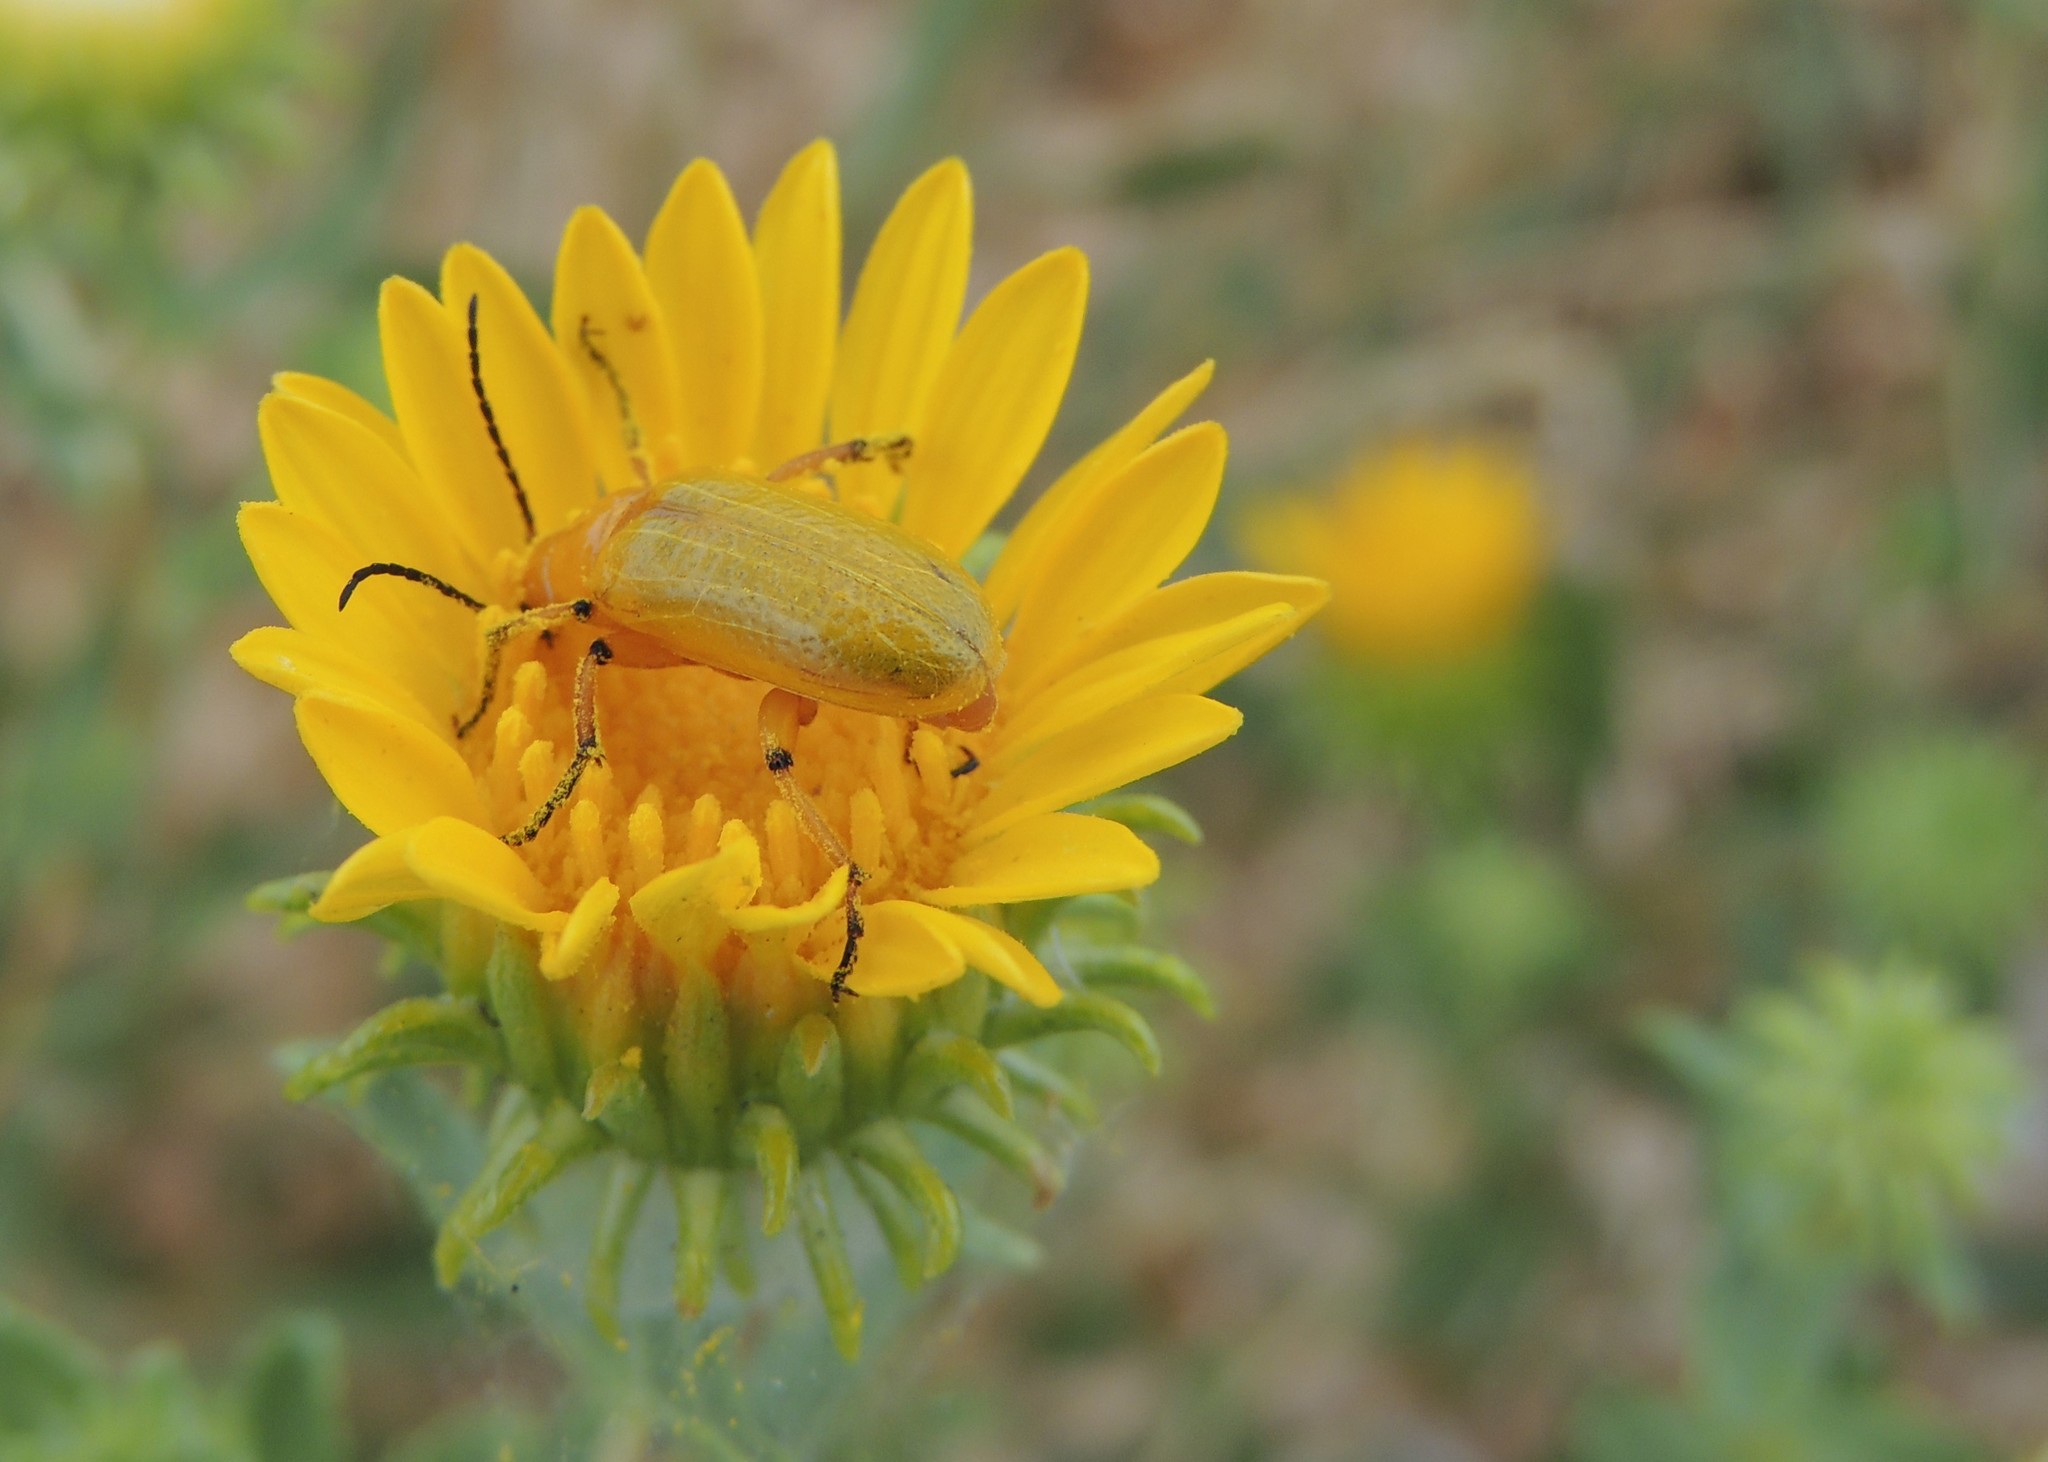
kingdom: Animalia
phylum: Arthropoda
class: Insecta
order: Coleoptera
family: Meloidae
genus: Zonitis
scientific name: Zonitis sayi
